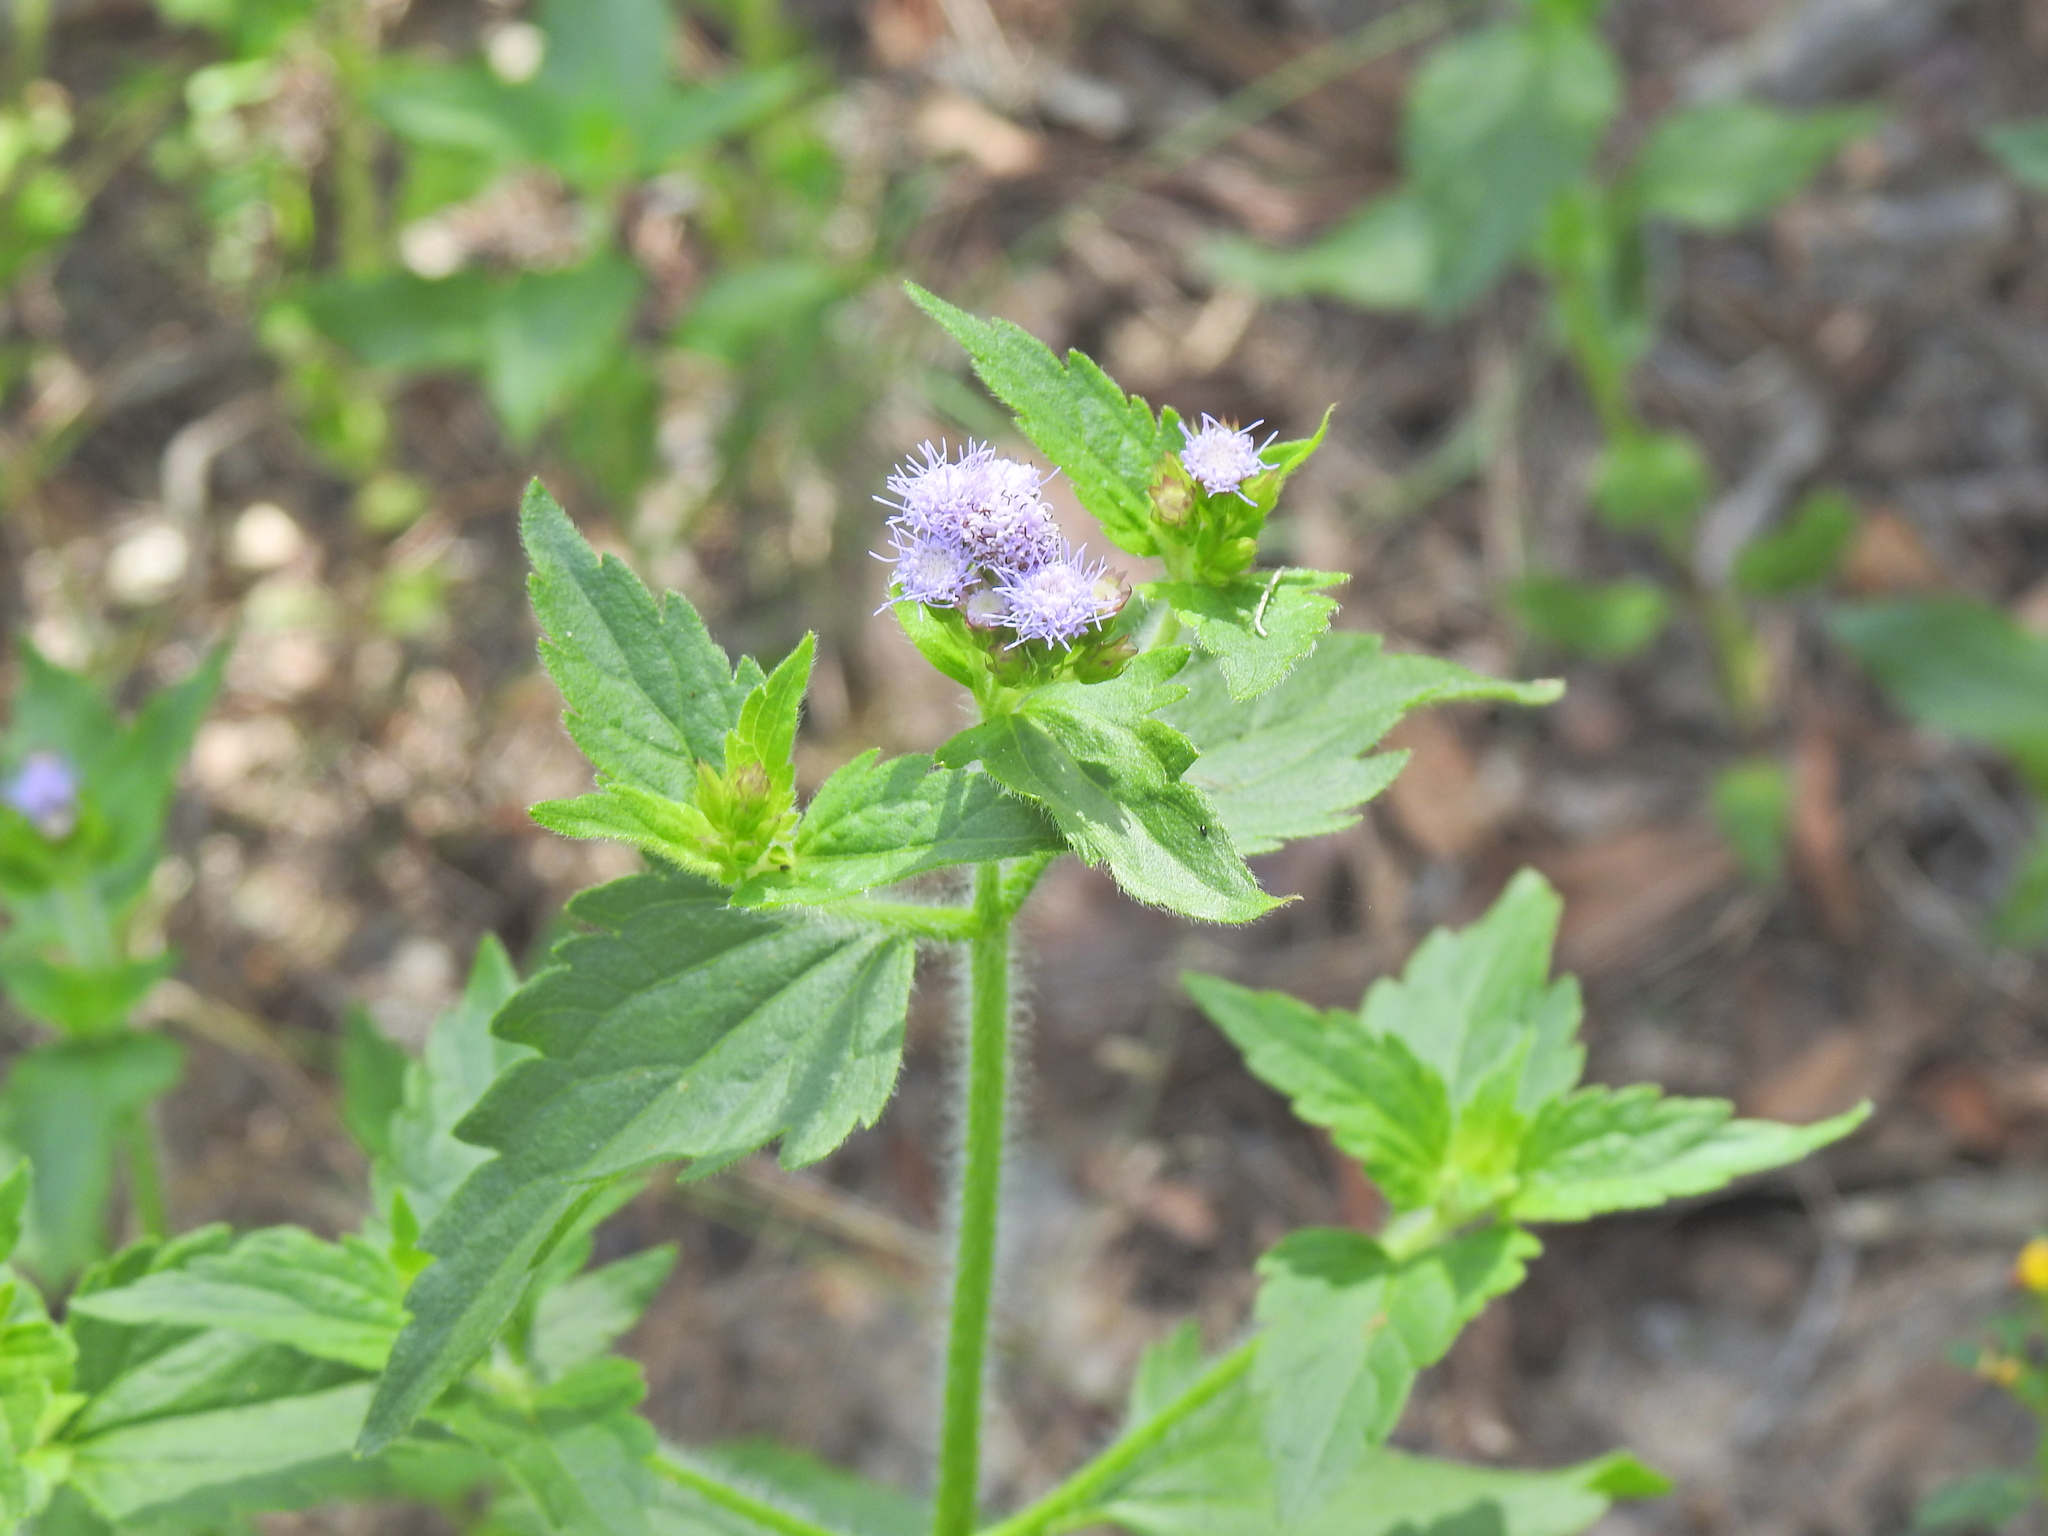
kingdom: Plantae
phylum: Tracheophyta
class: Magnoliopsida
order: Asterales
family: Asteraceae
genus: Praxelis
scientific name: Praxelis clematidea
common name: Praxelis
